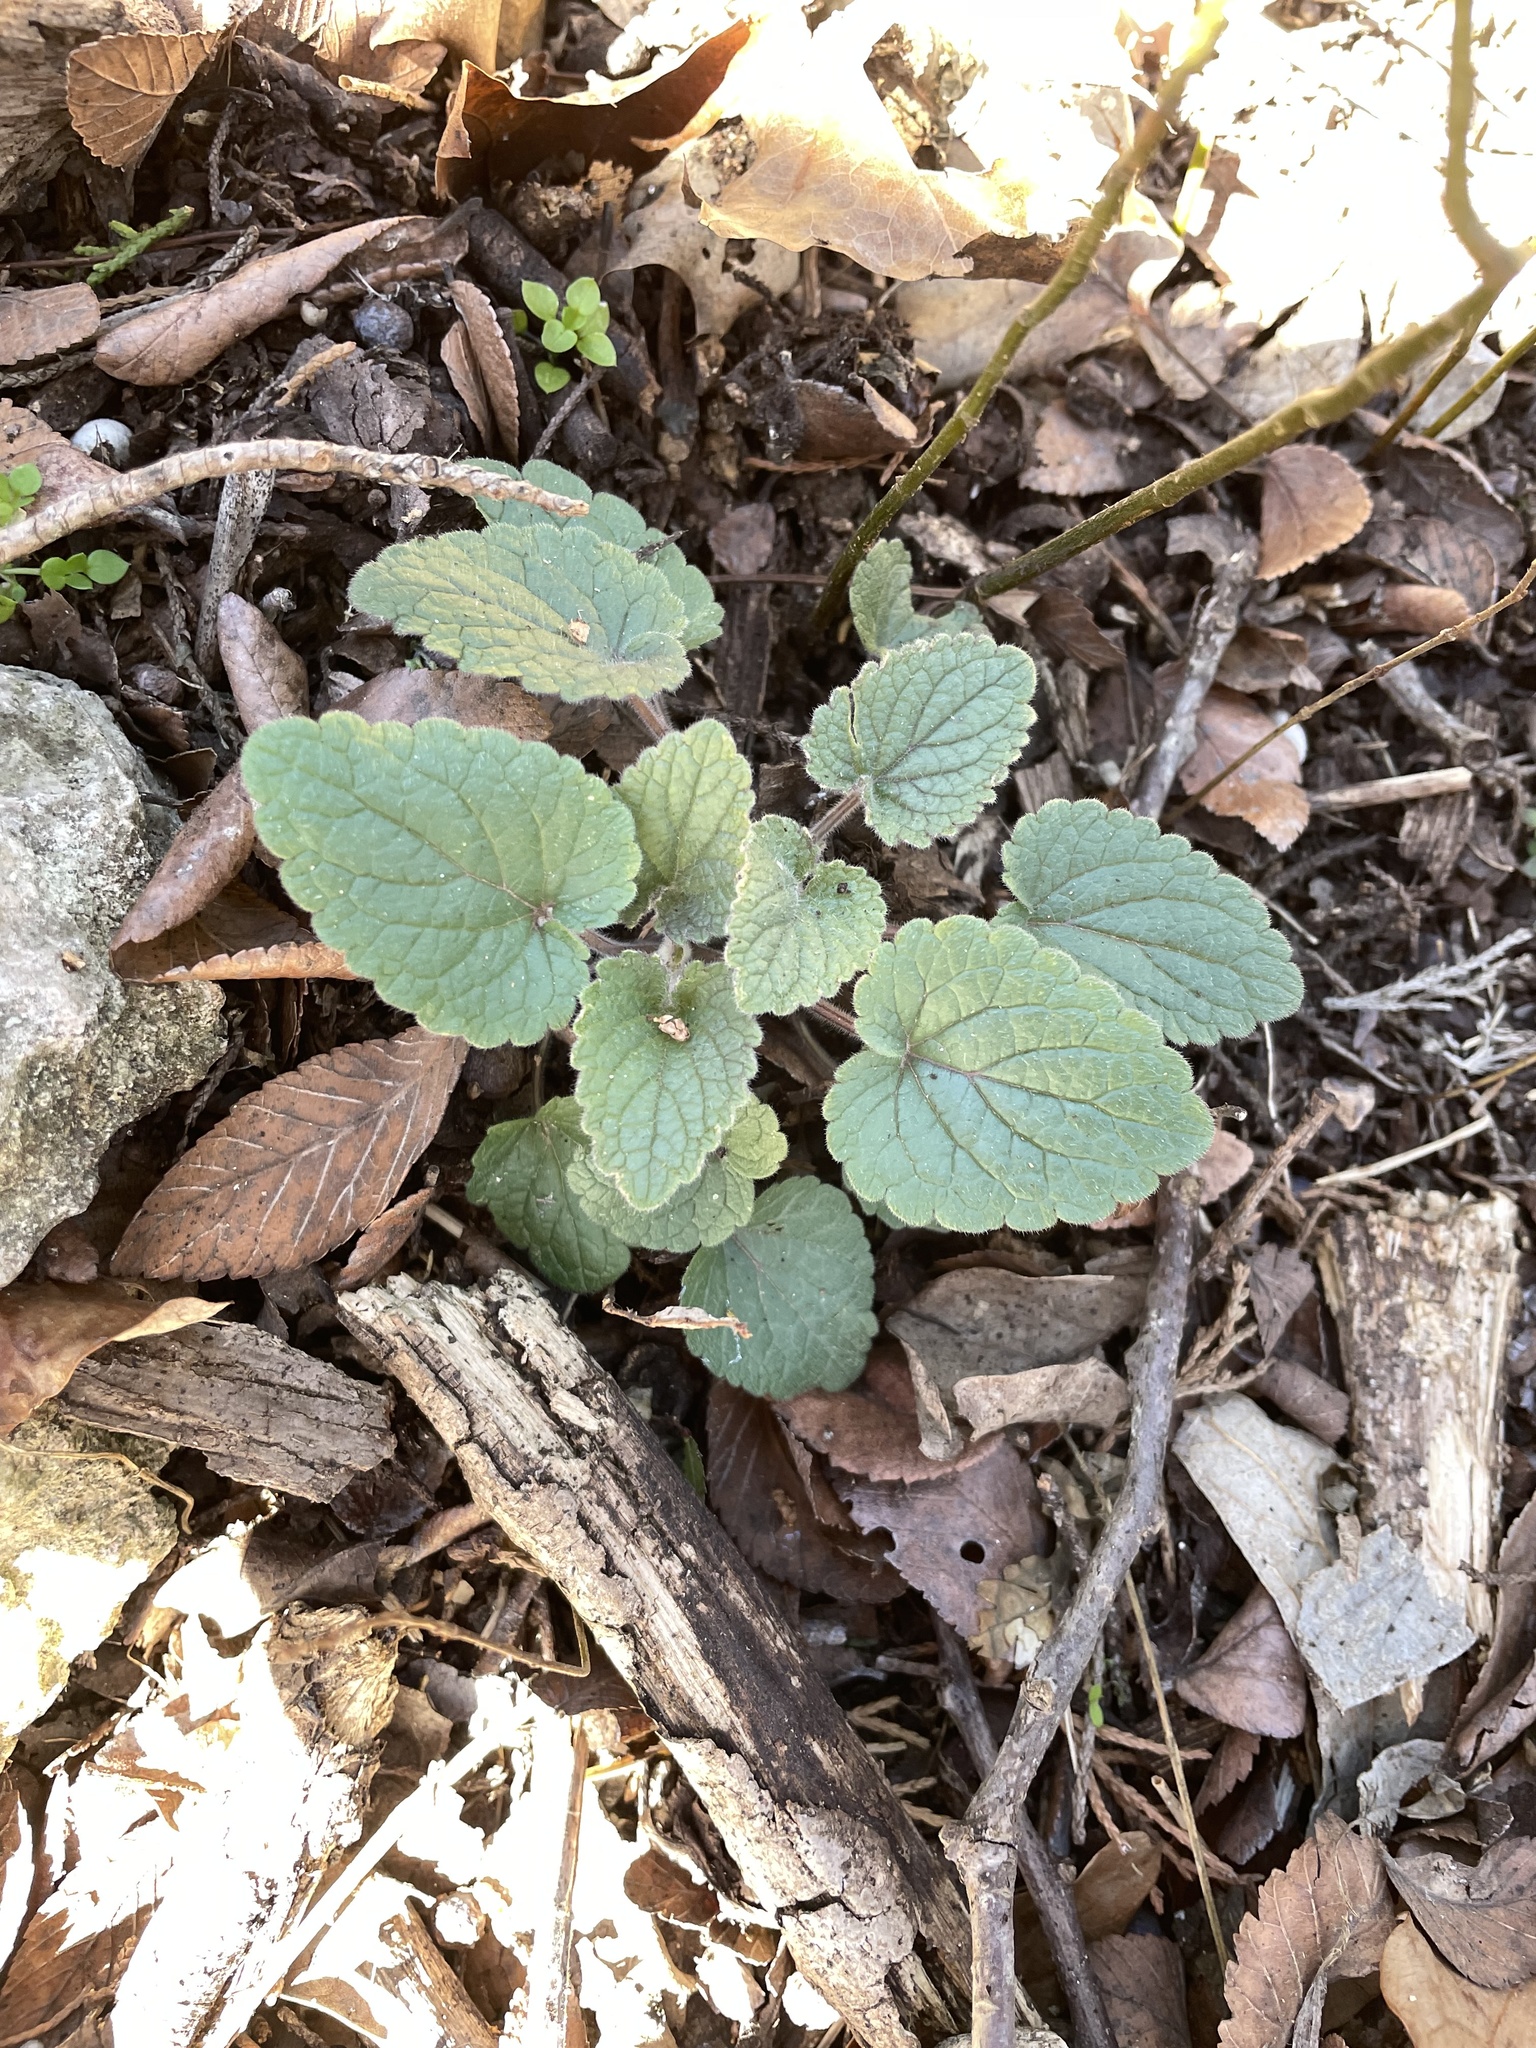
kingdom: Plantae
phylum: Tracheophyta
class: Magnoliopsida
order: Lamiales
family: Lamiaceae
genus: Scutellaria
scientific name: Scutellaria ovata
